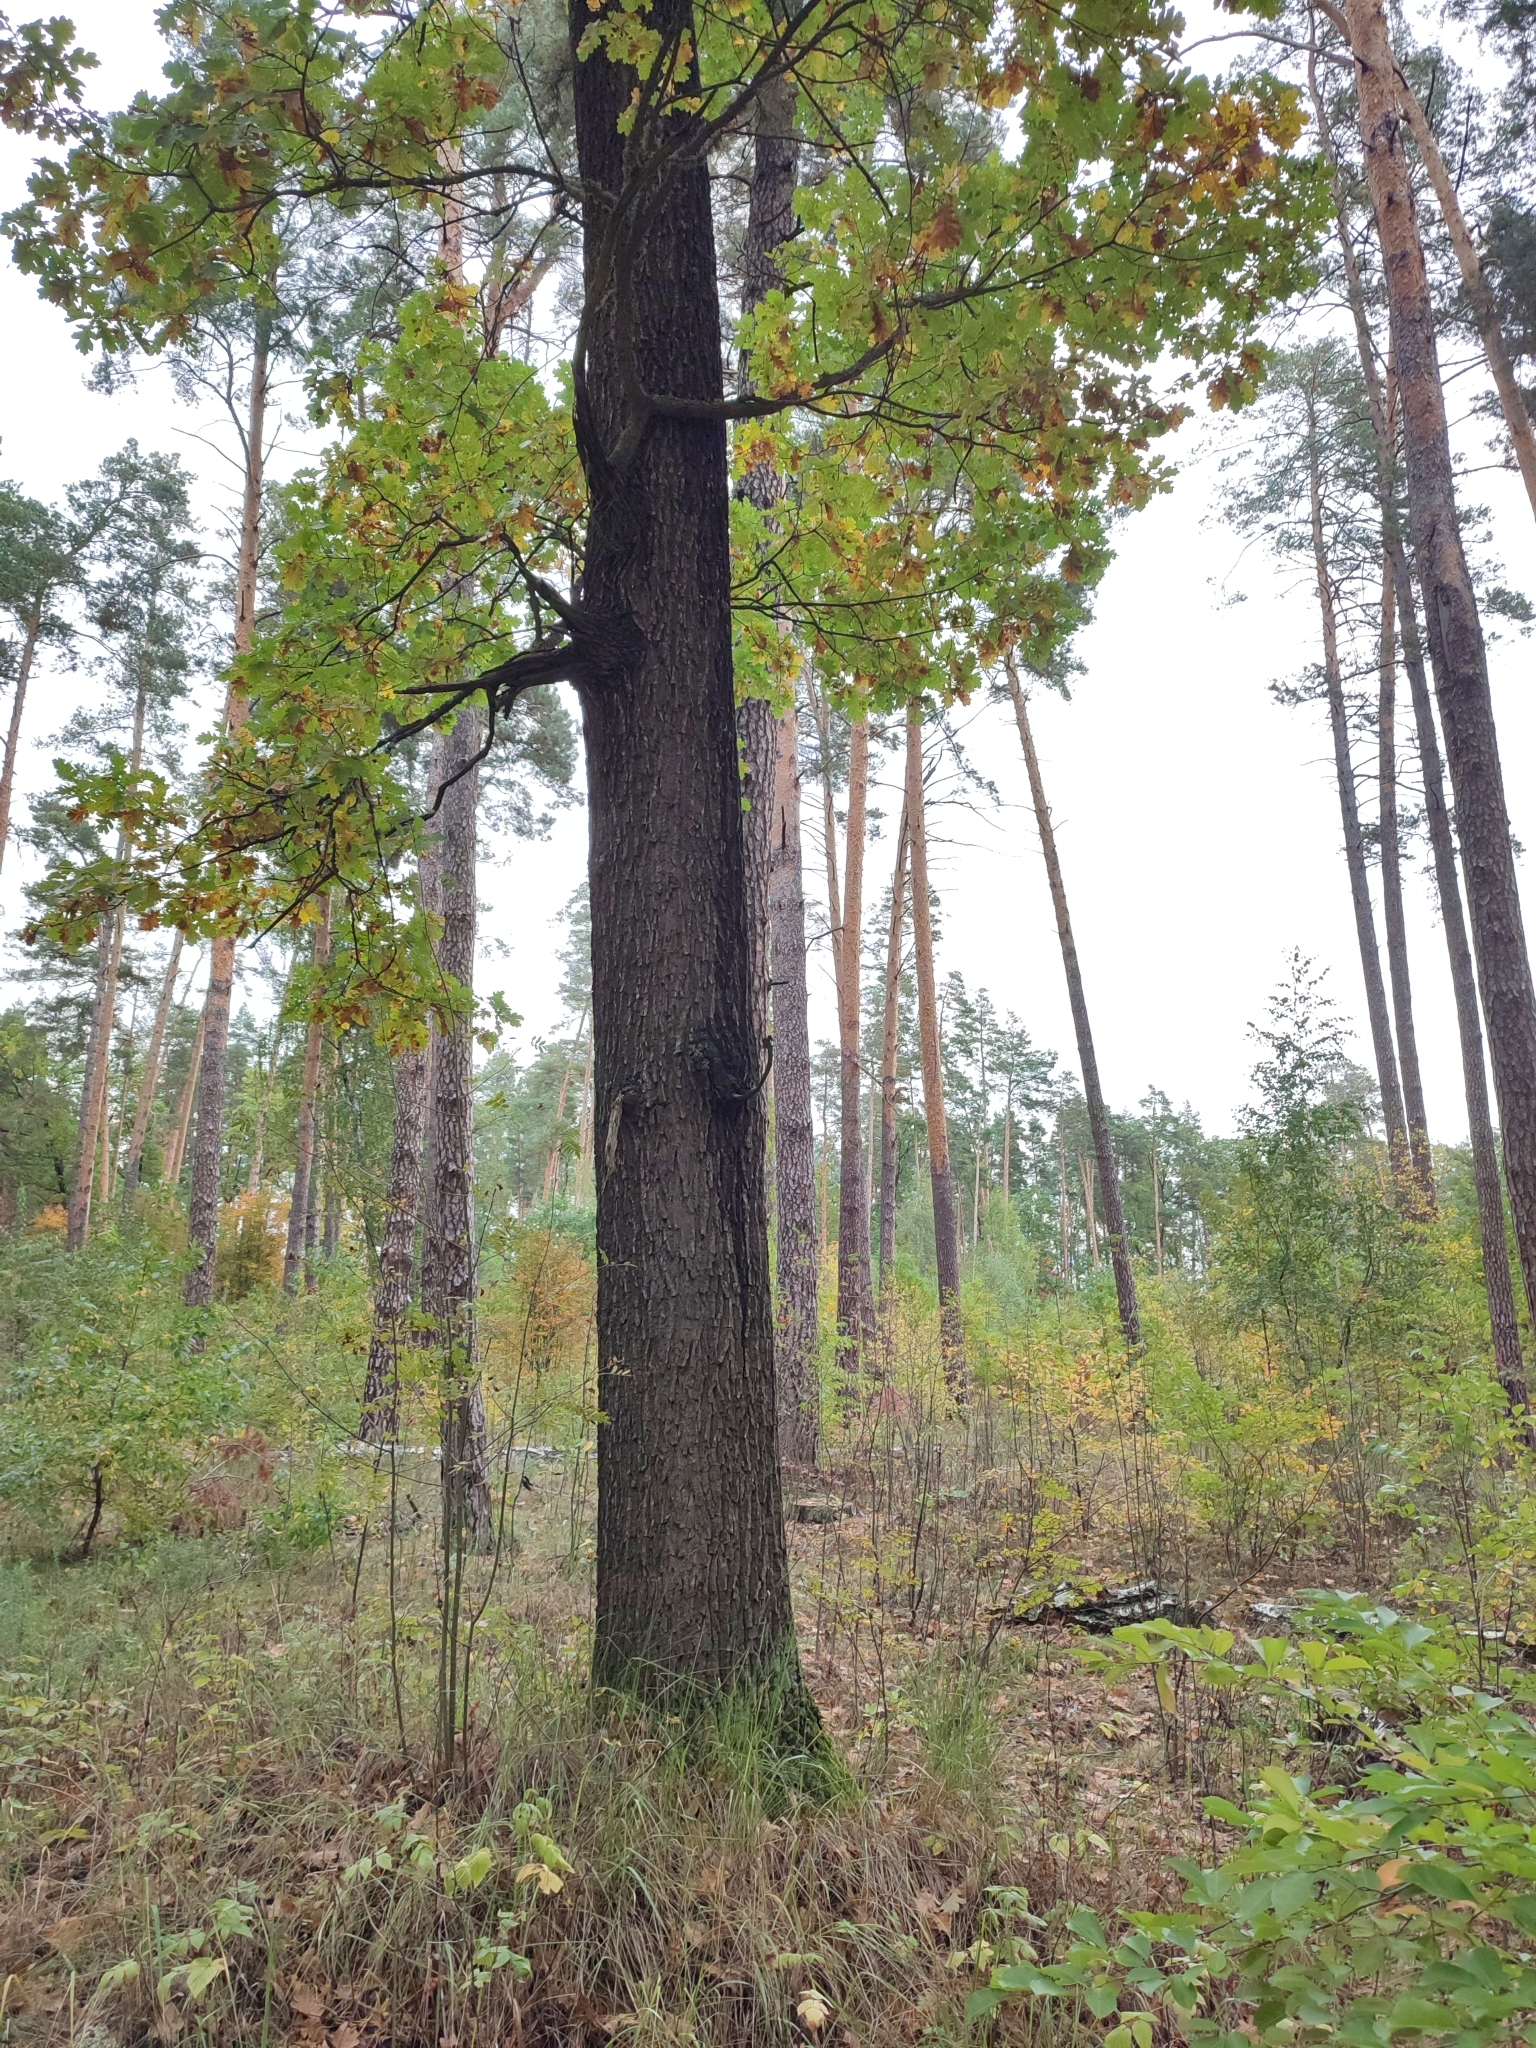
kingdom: Plantae
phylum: Tracheophyta
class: Magnoliopsida
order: Fagales
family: Fagaceae
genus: Quercus
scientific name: Quercus robur
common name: Pedunculate oak
